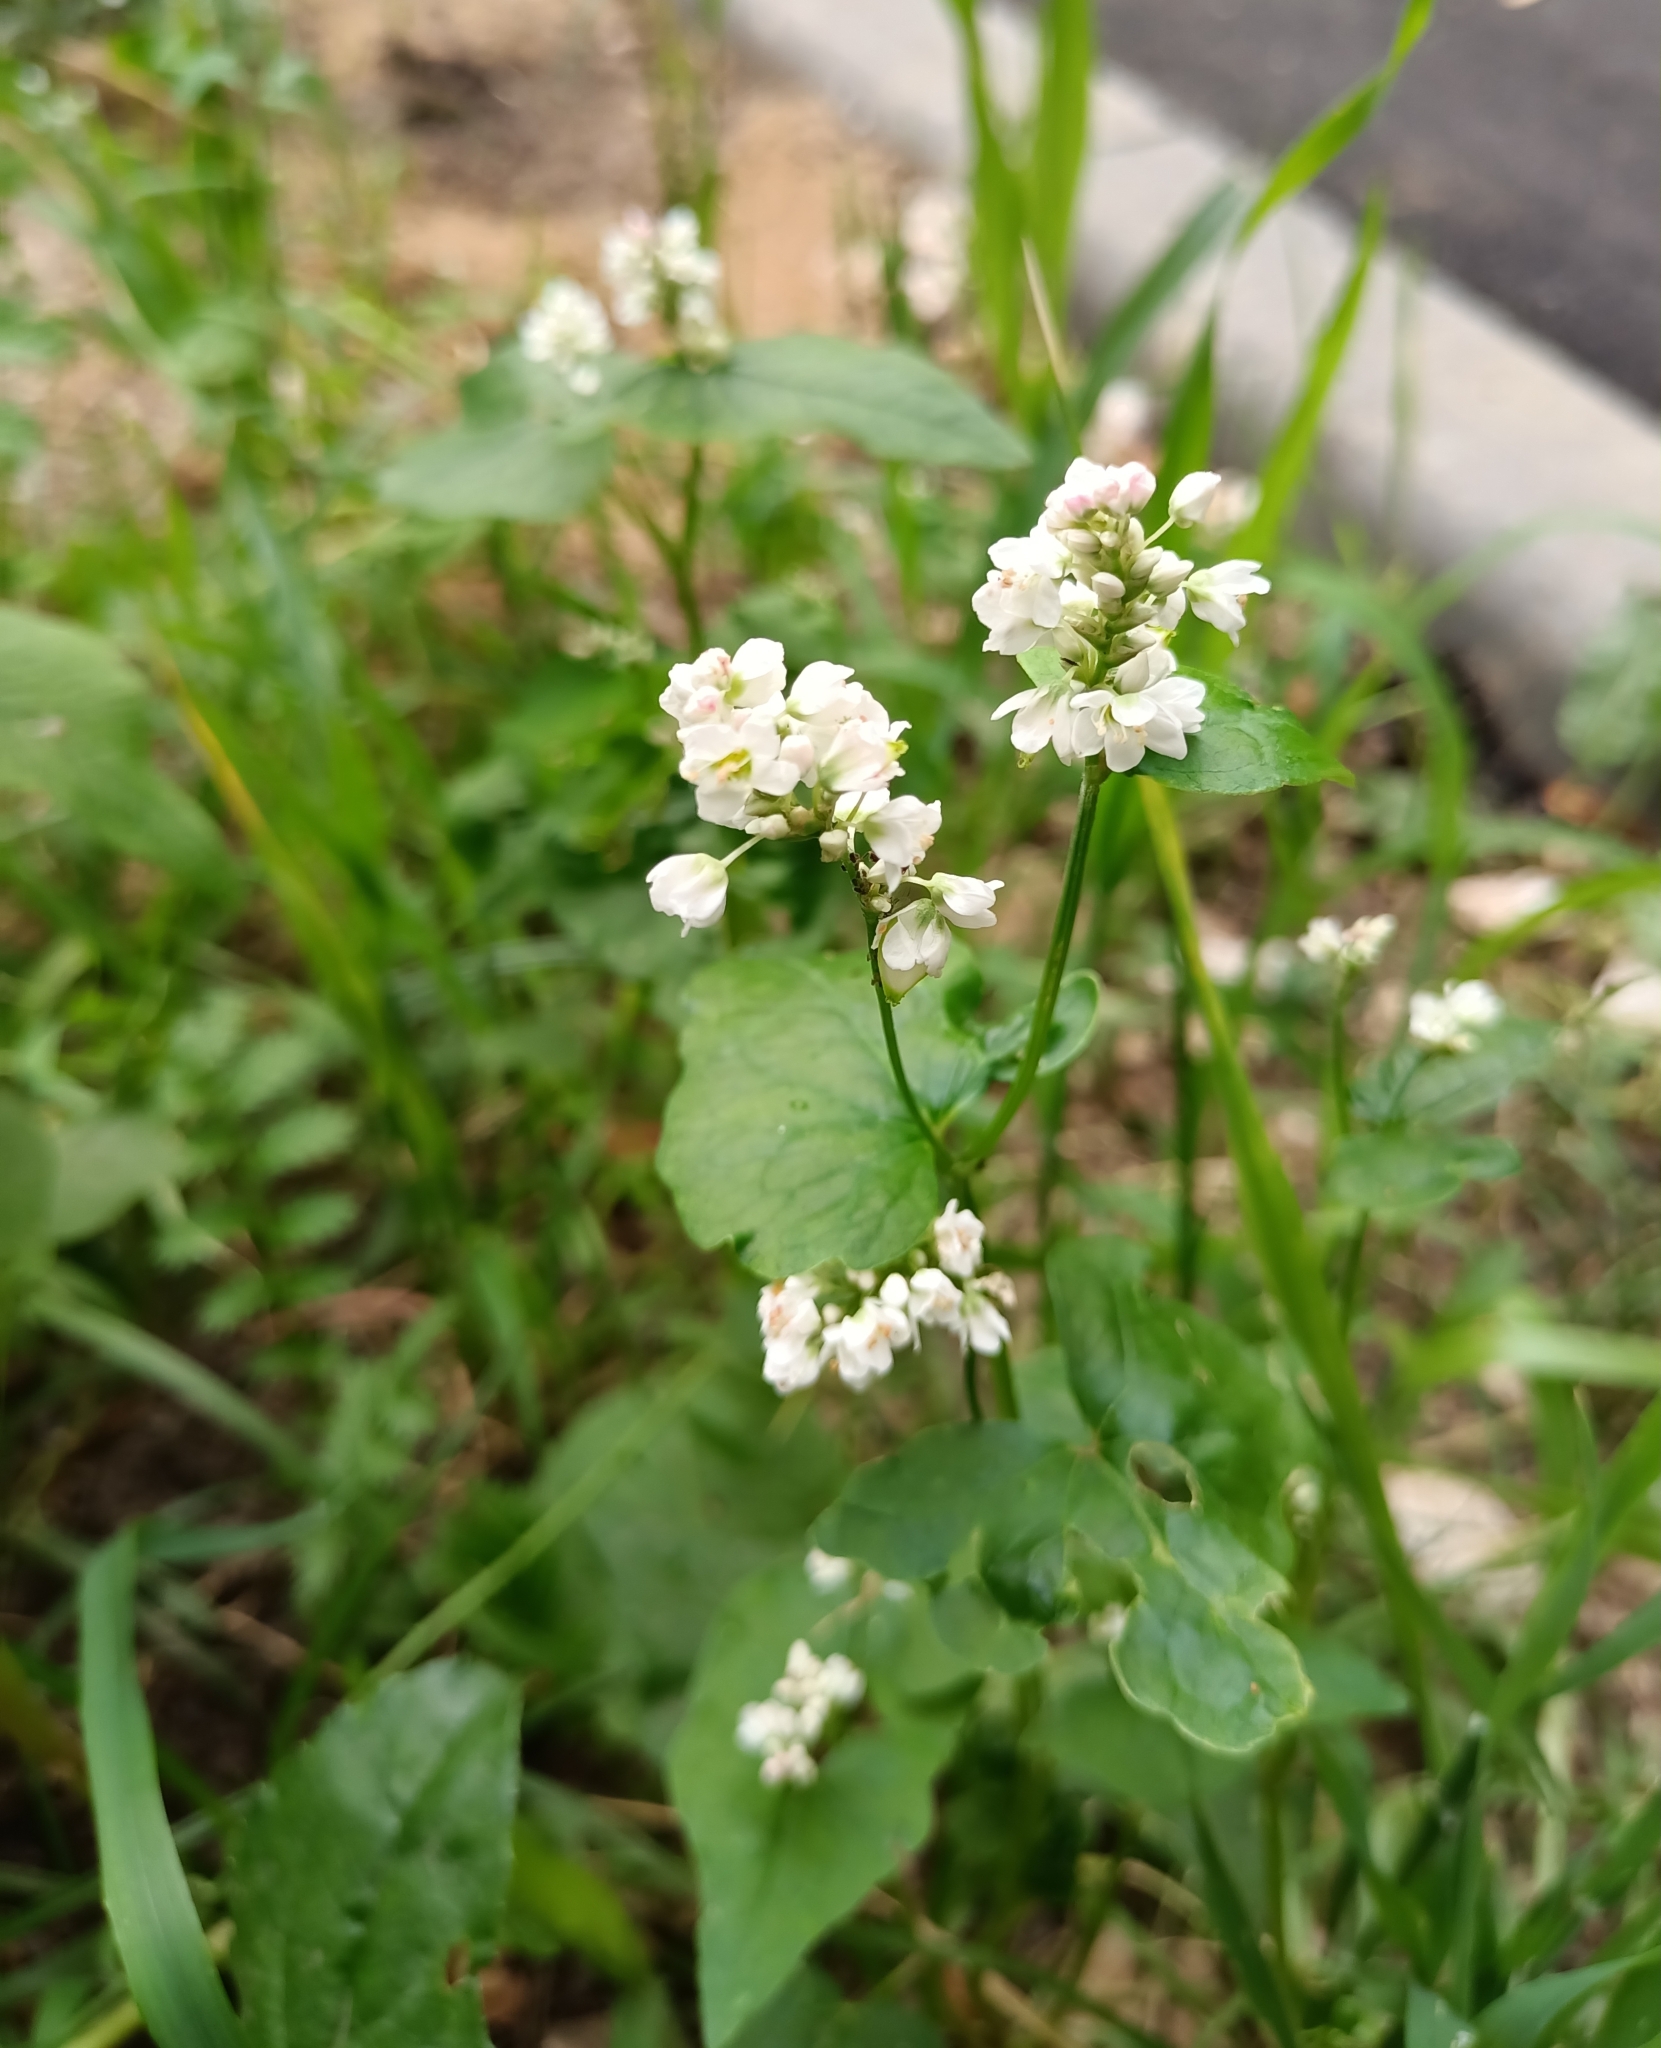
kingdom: Plantae
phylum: Tracheophyta
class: Magnoliopsida
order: Caryophyllales
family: Polygonaceae
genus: Fagopyrum
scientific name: Fagopyrum esculentum
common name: Buckwheat
